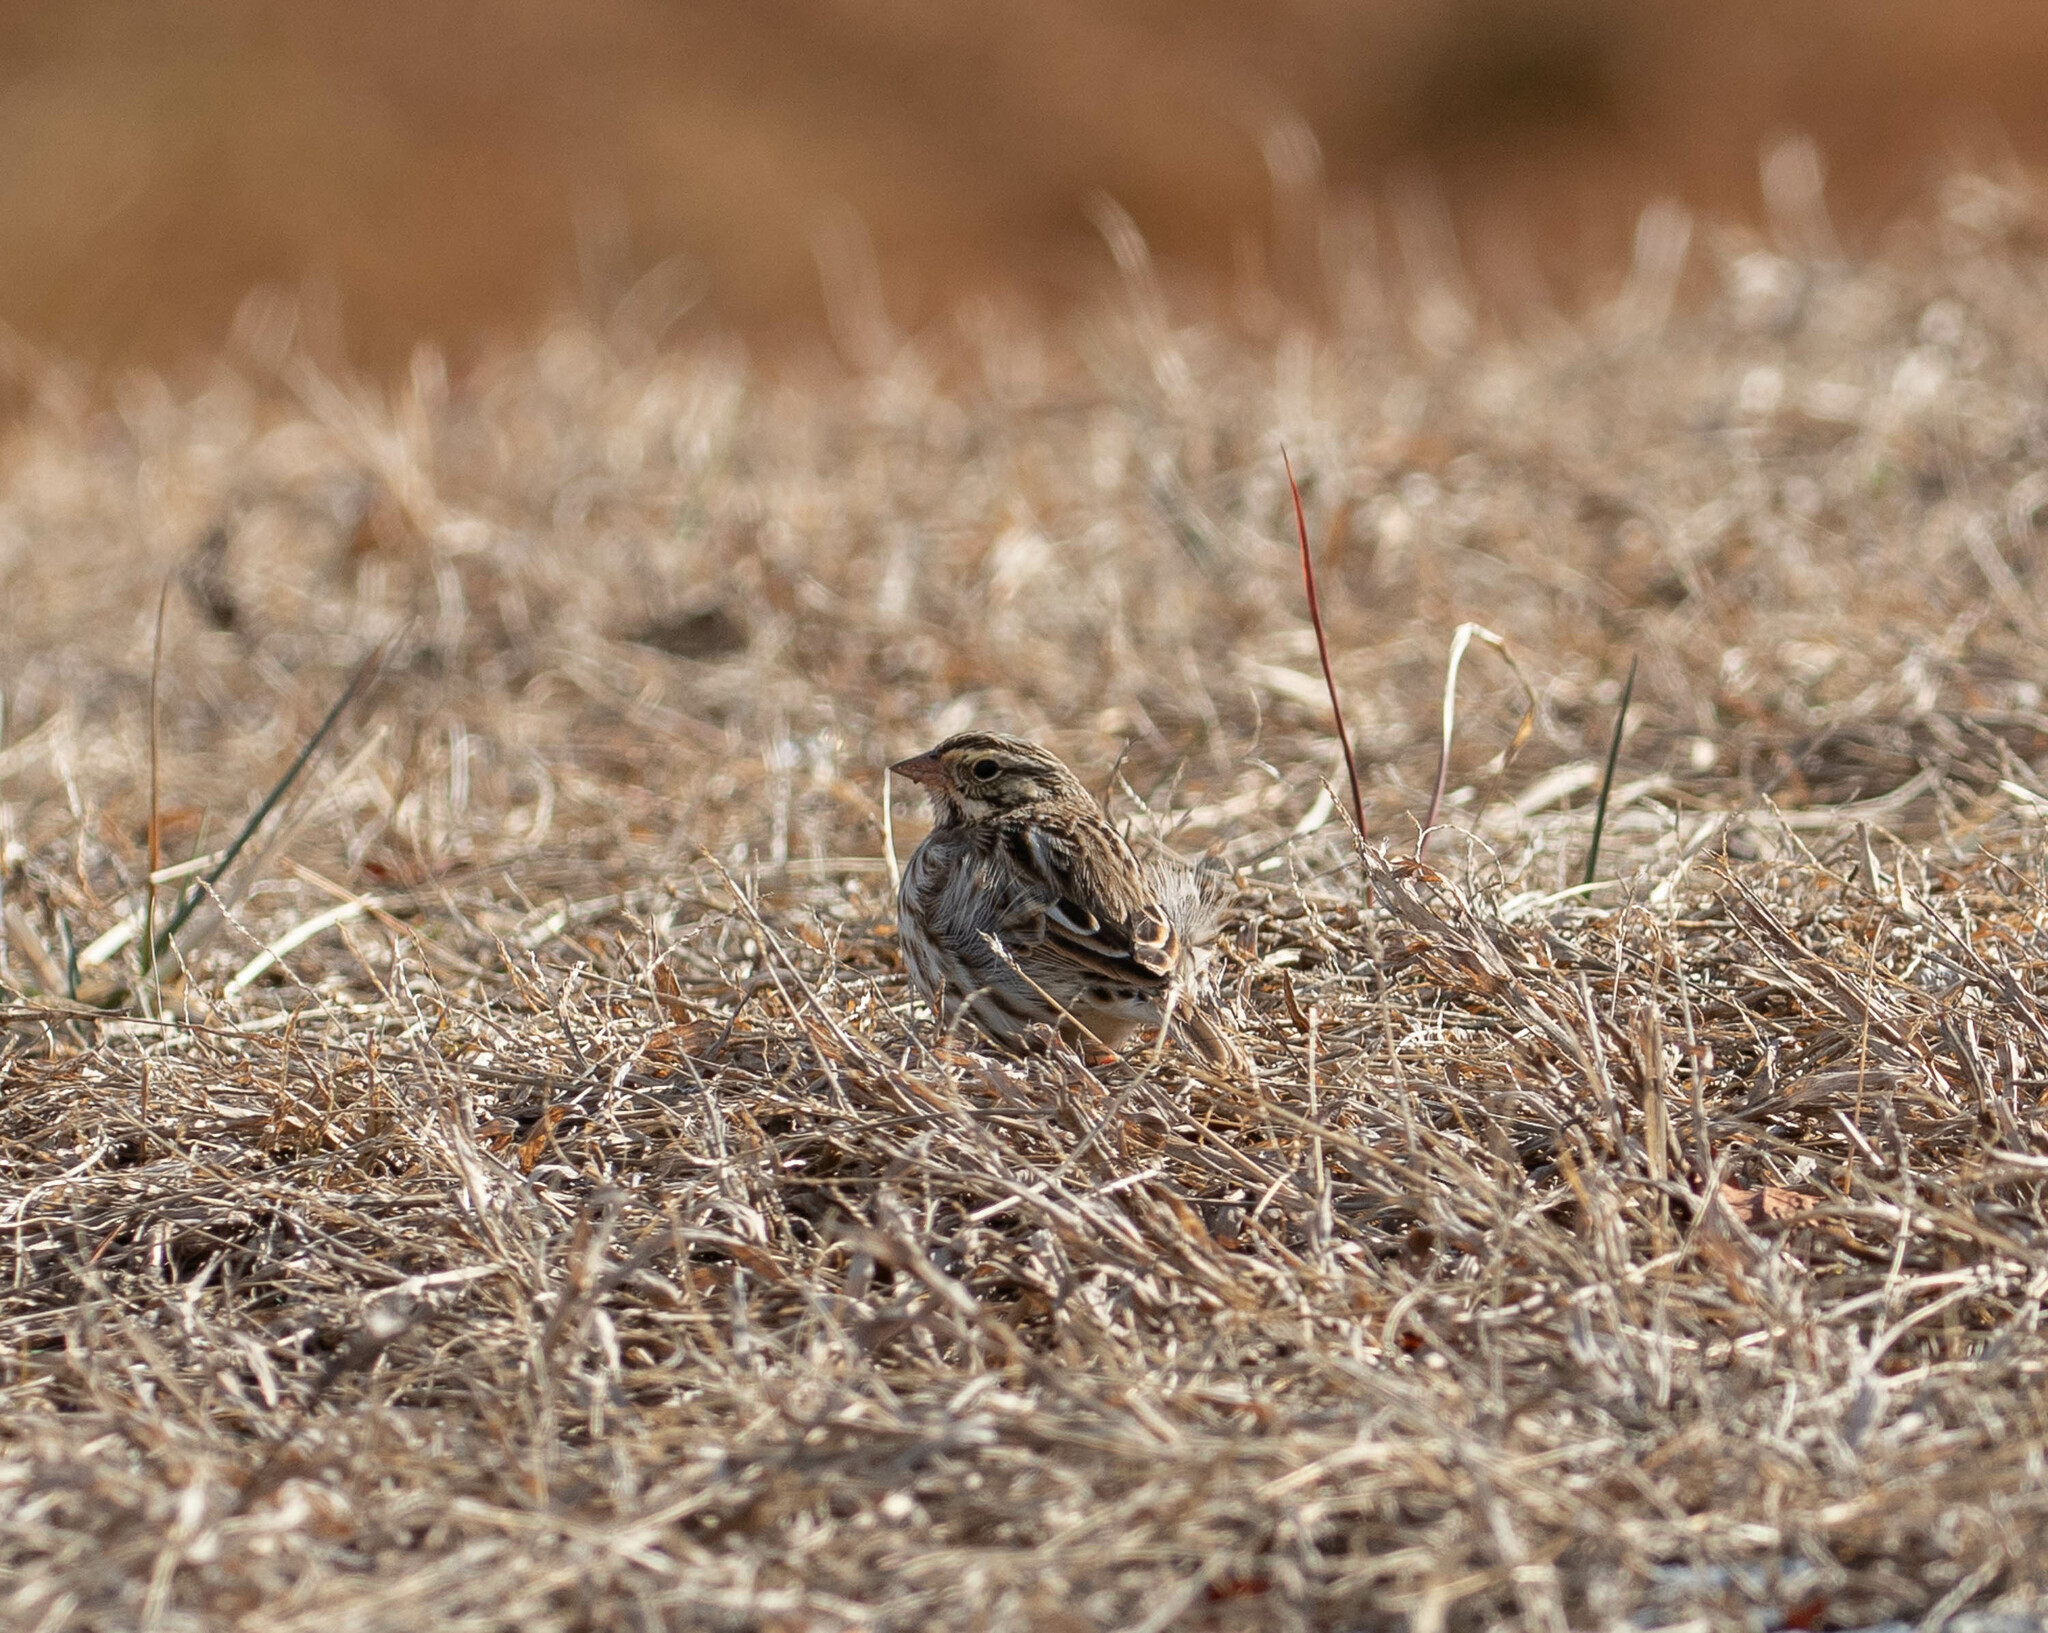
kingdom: Animalia
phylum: Chordata
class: Aves
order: Passeriformes
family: Passerellidae
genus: Passerculus
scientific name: Passerculus sandwichensis
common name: Savannah sparrow
